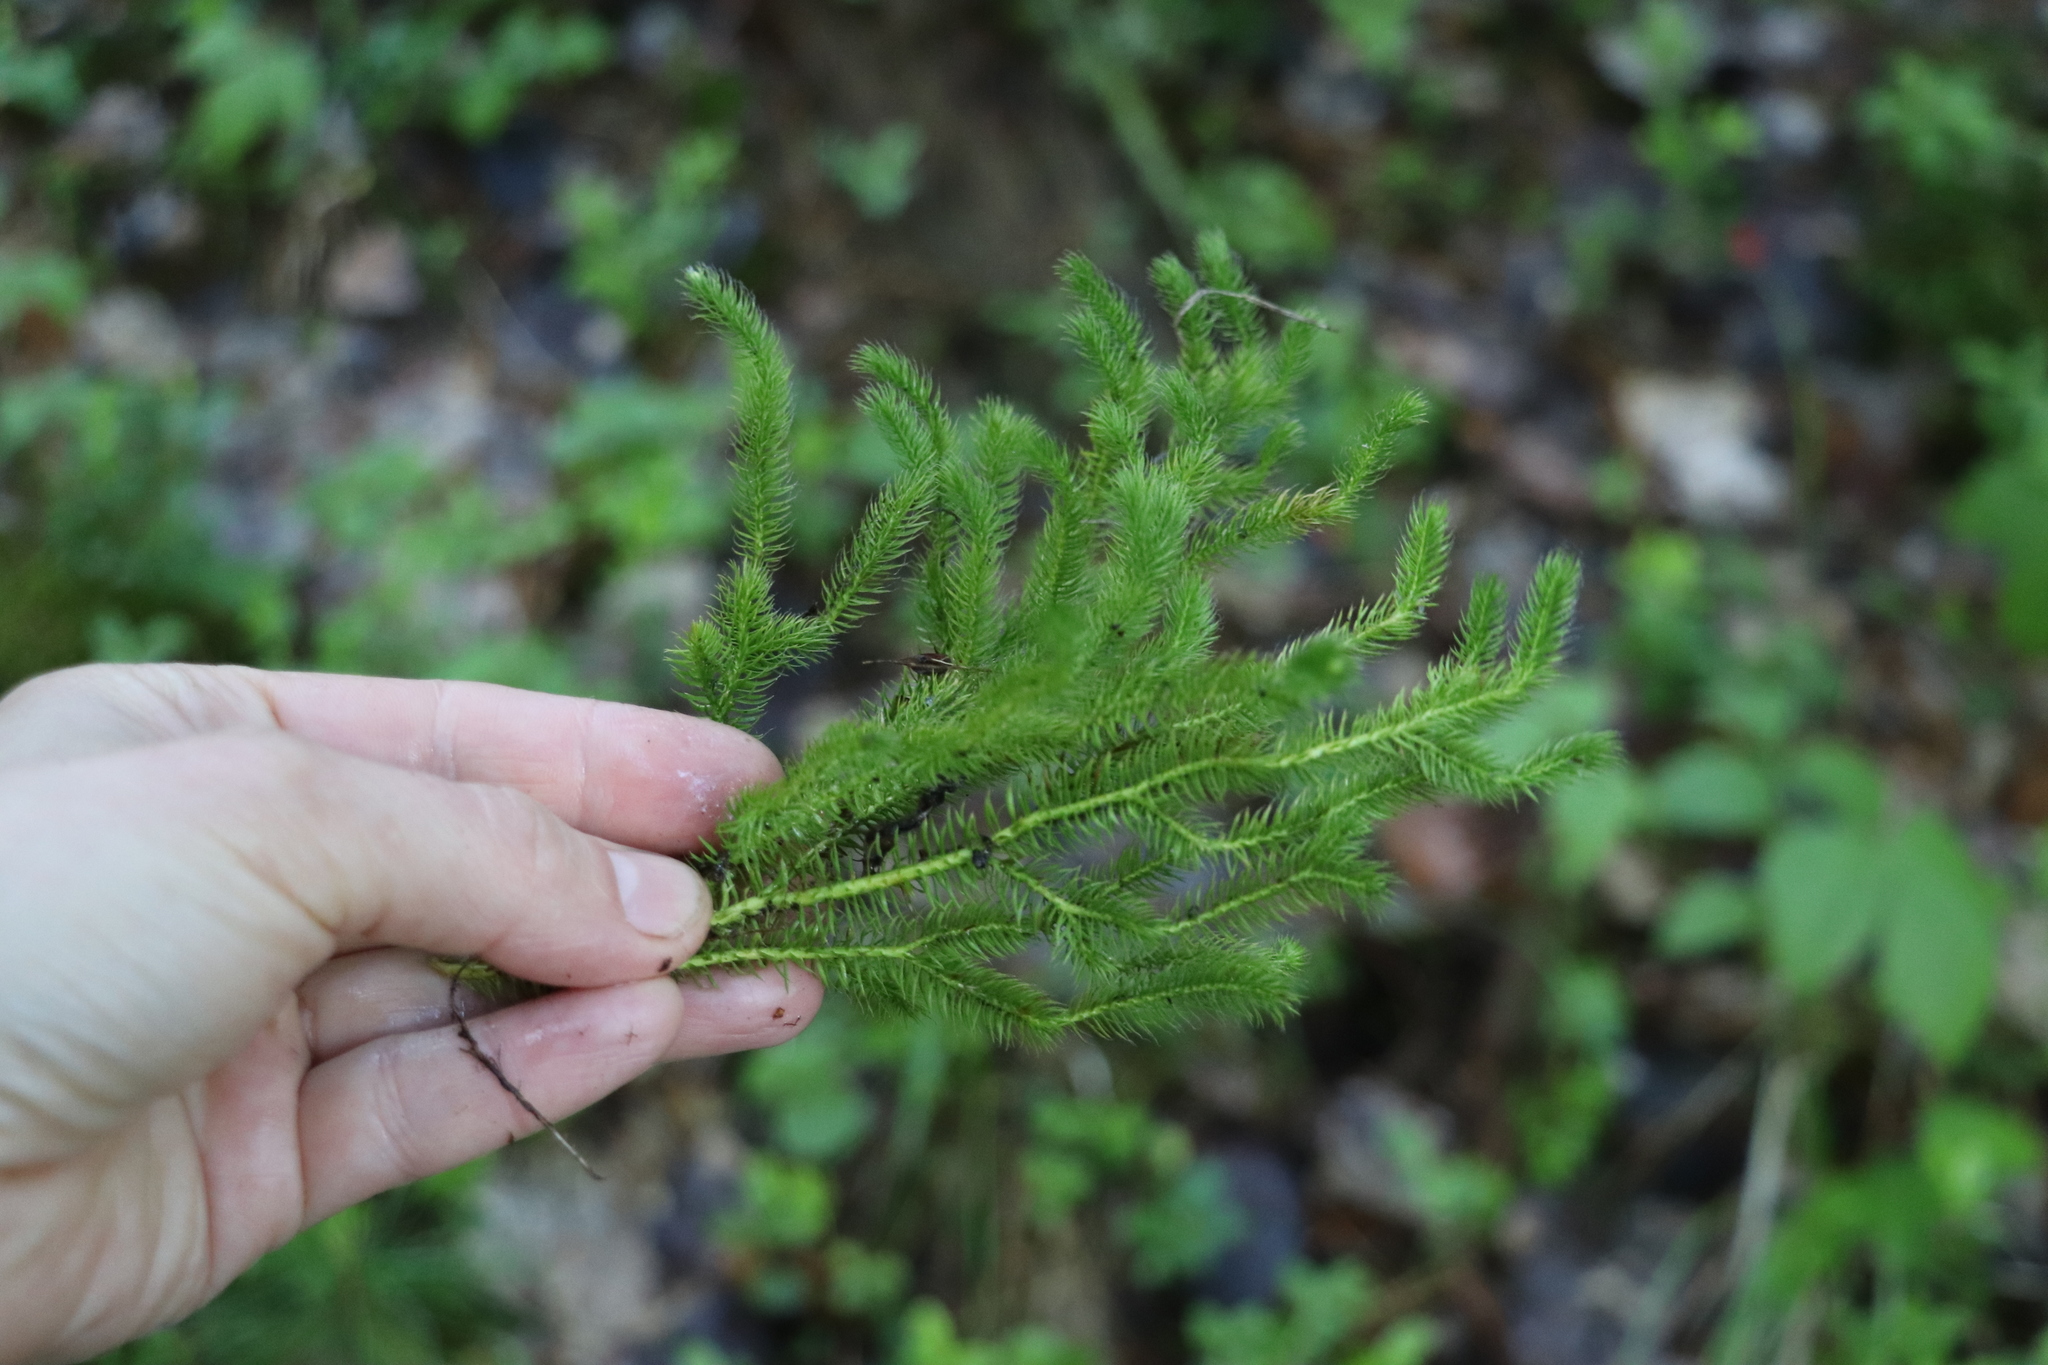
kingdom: Plantae
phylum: Tracheophyta
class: Lycopodiopsida
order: Lycopodiales
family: Lycopodiaceae
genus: Lycopodium
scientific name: Lycopodium clavatum
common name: Stag's-horn clubmoss
